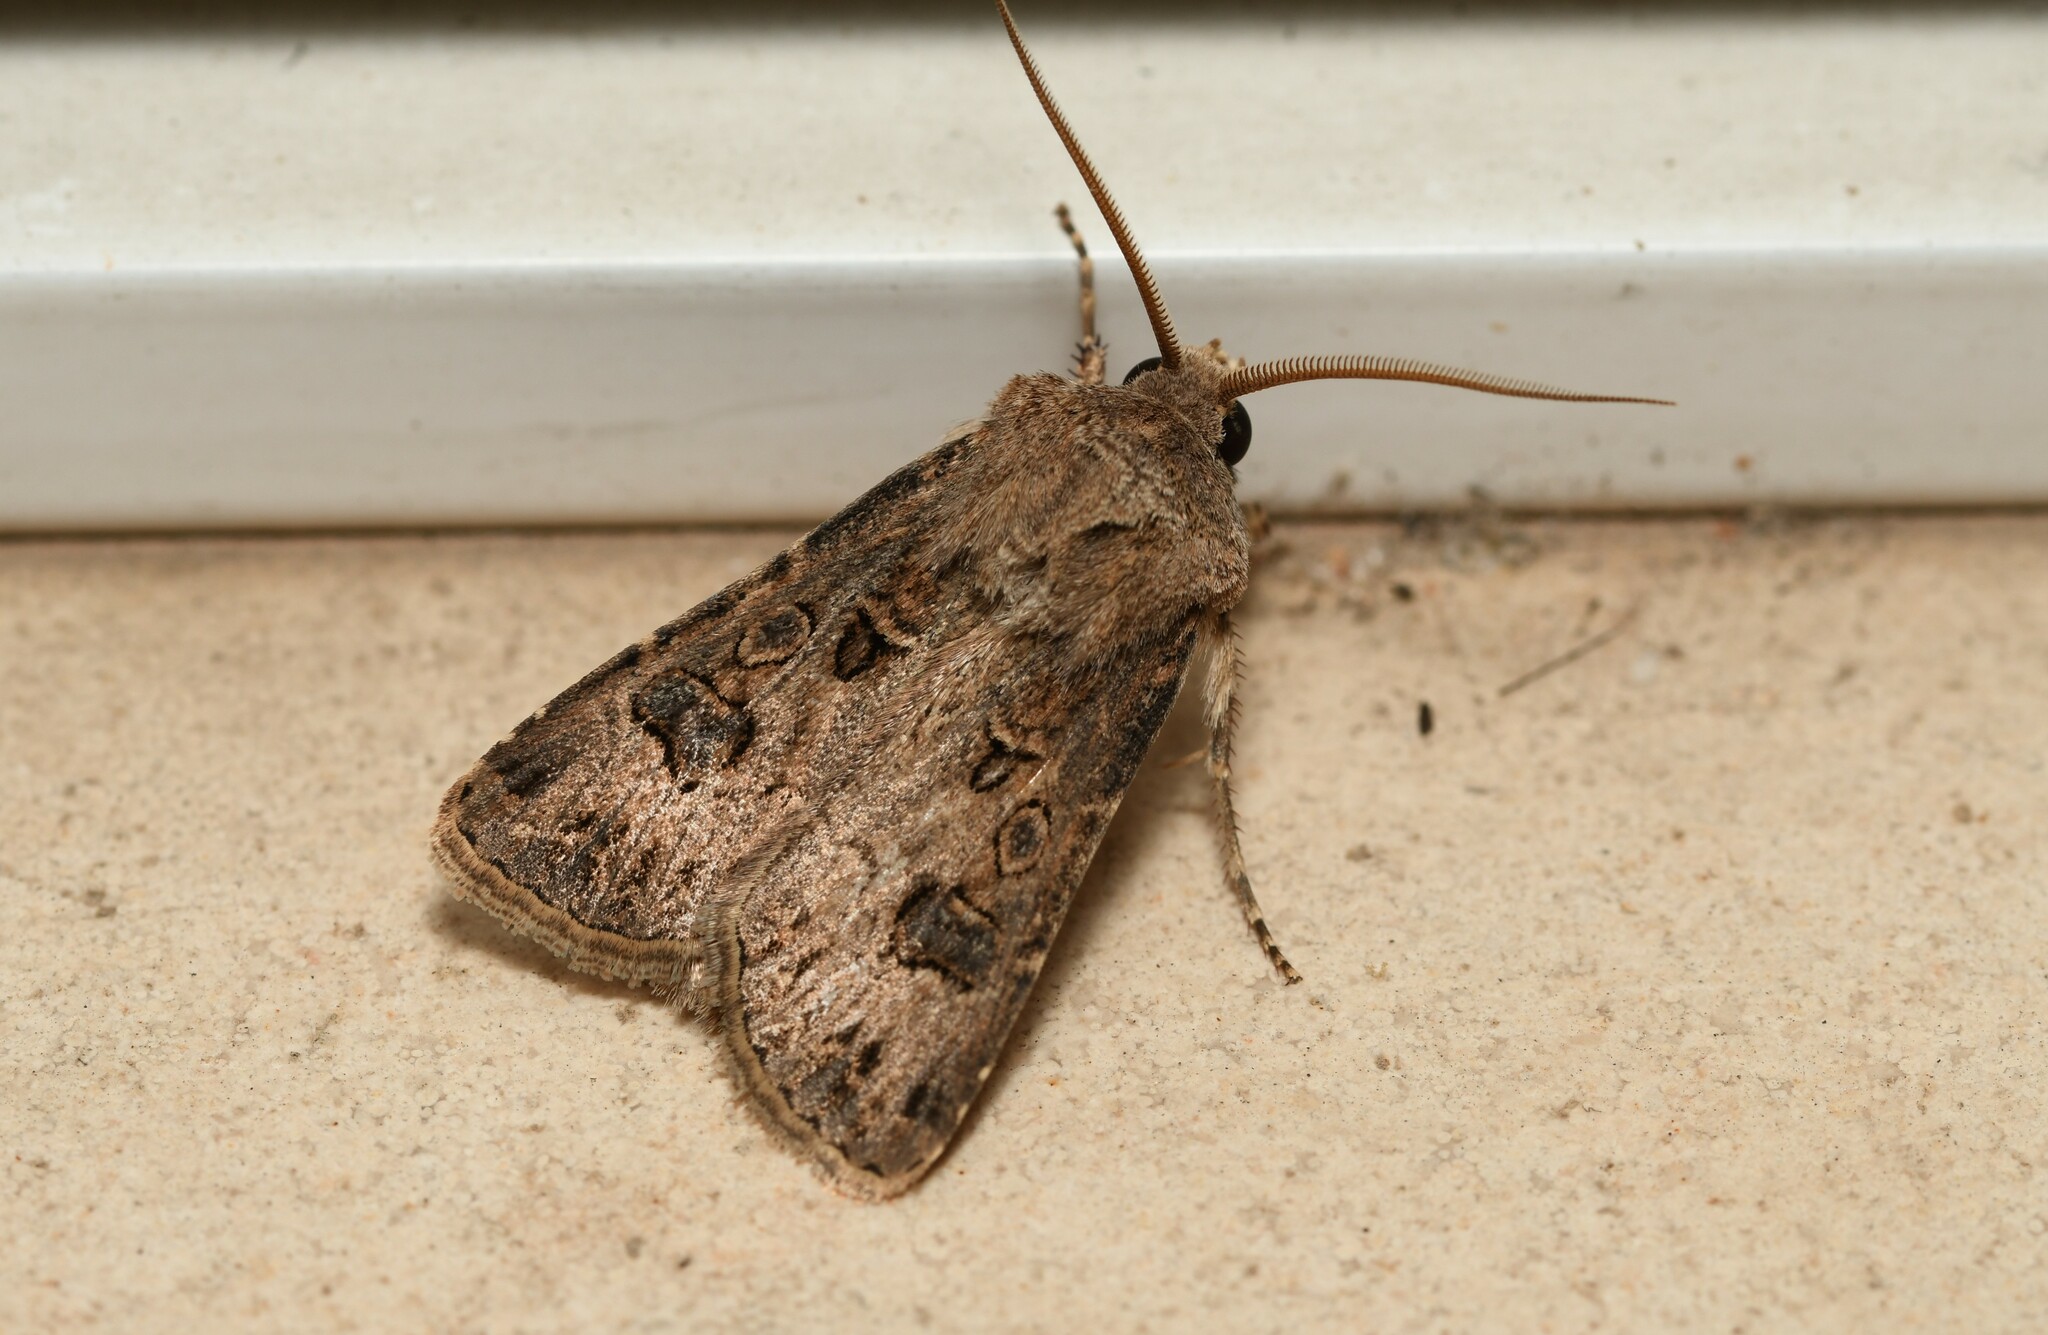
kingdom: Animalia
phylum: Arthropoda
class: Insecta
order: Lepidoptera
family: Noctuidae
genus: Agrotis
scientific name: Agrotis bigramma
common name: Great dart
